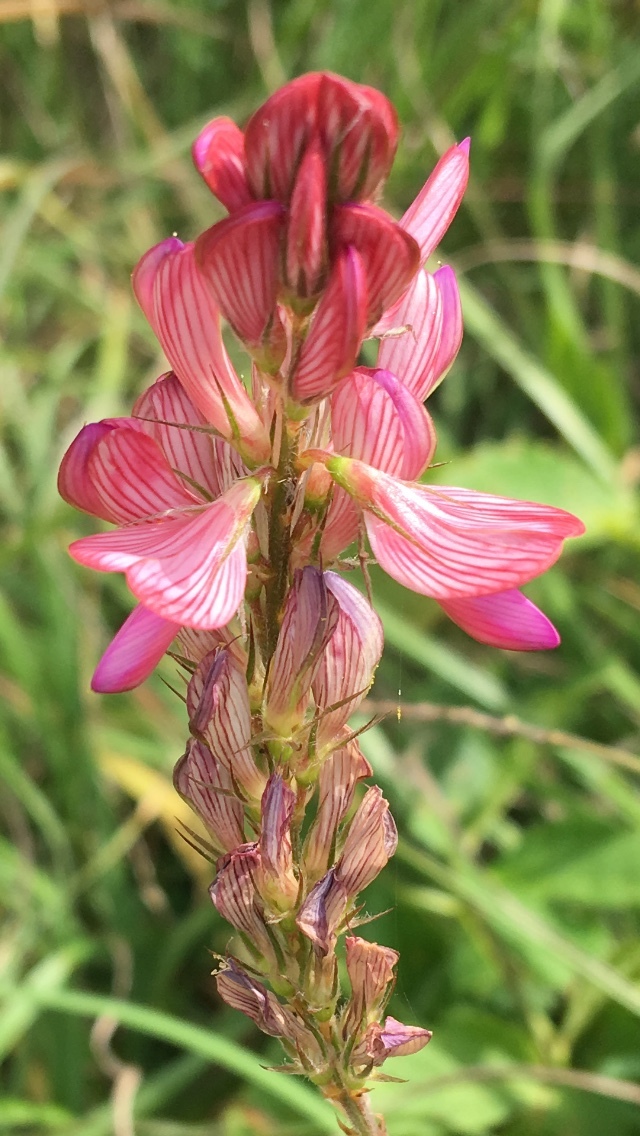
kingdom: Plantae
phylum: Tracheophyta
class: Magnoliopsida
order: Fabales
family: Fabaceae
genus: Onobrychis
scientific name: Onobrychis viciifolia
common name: Sainfoin
